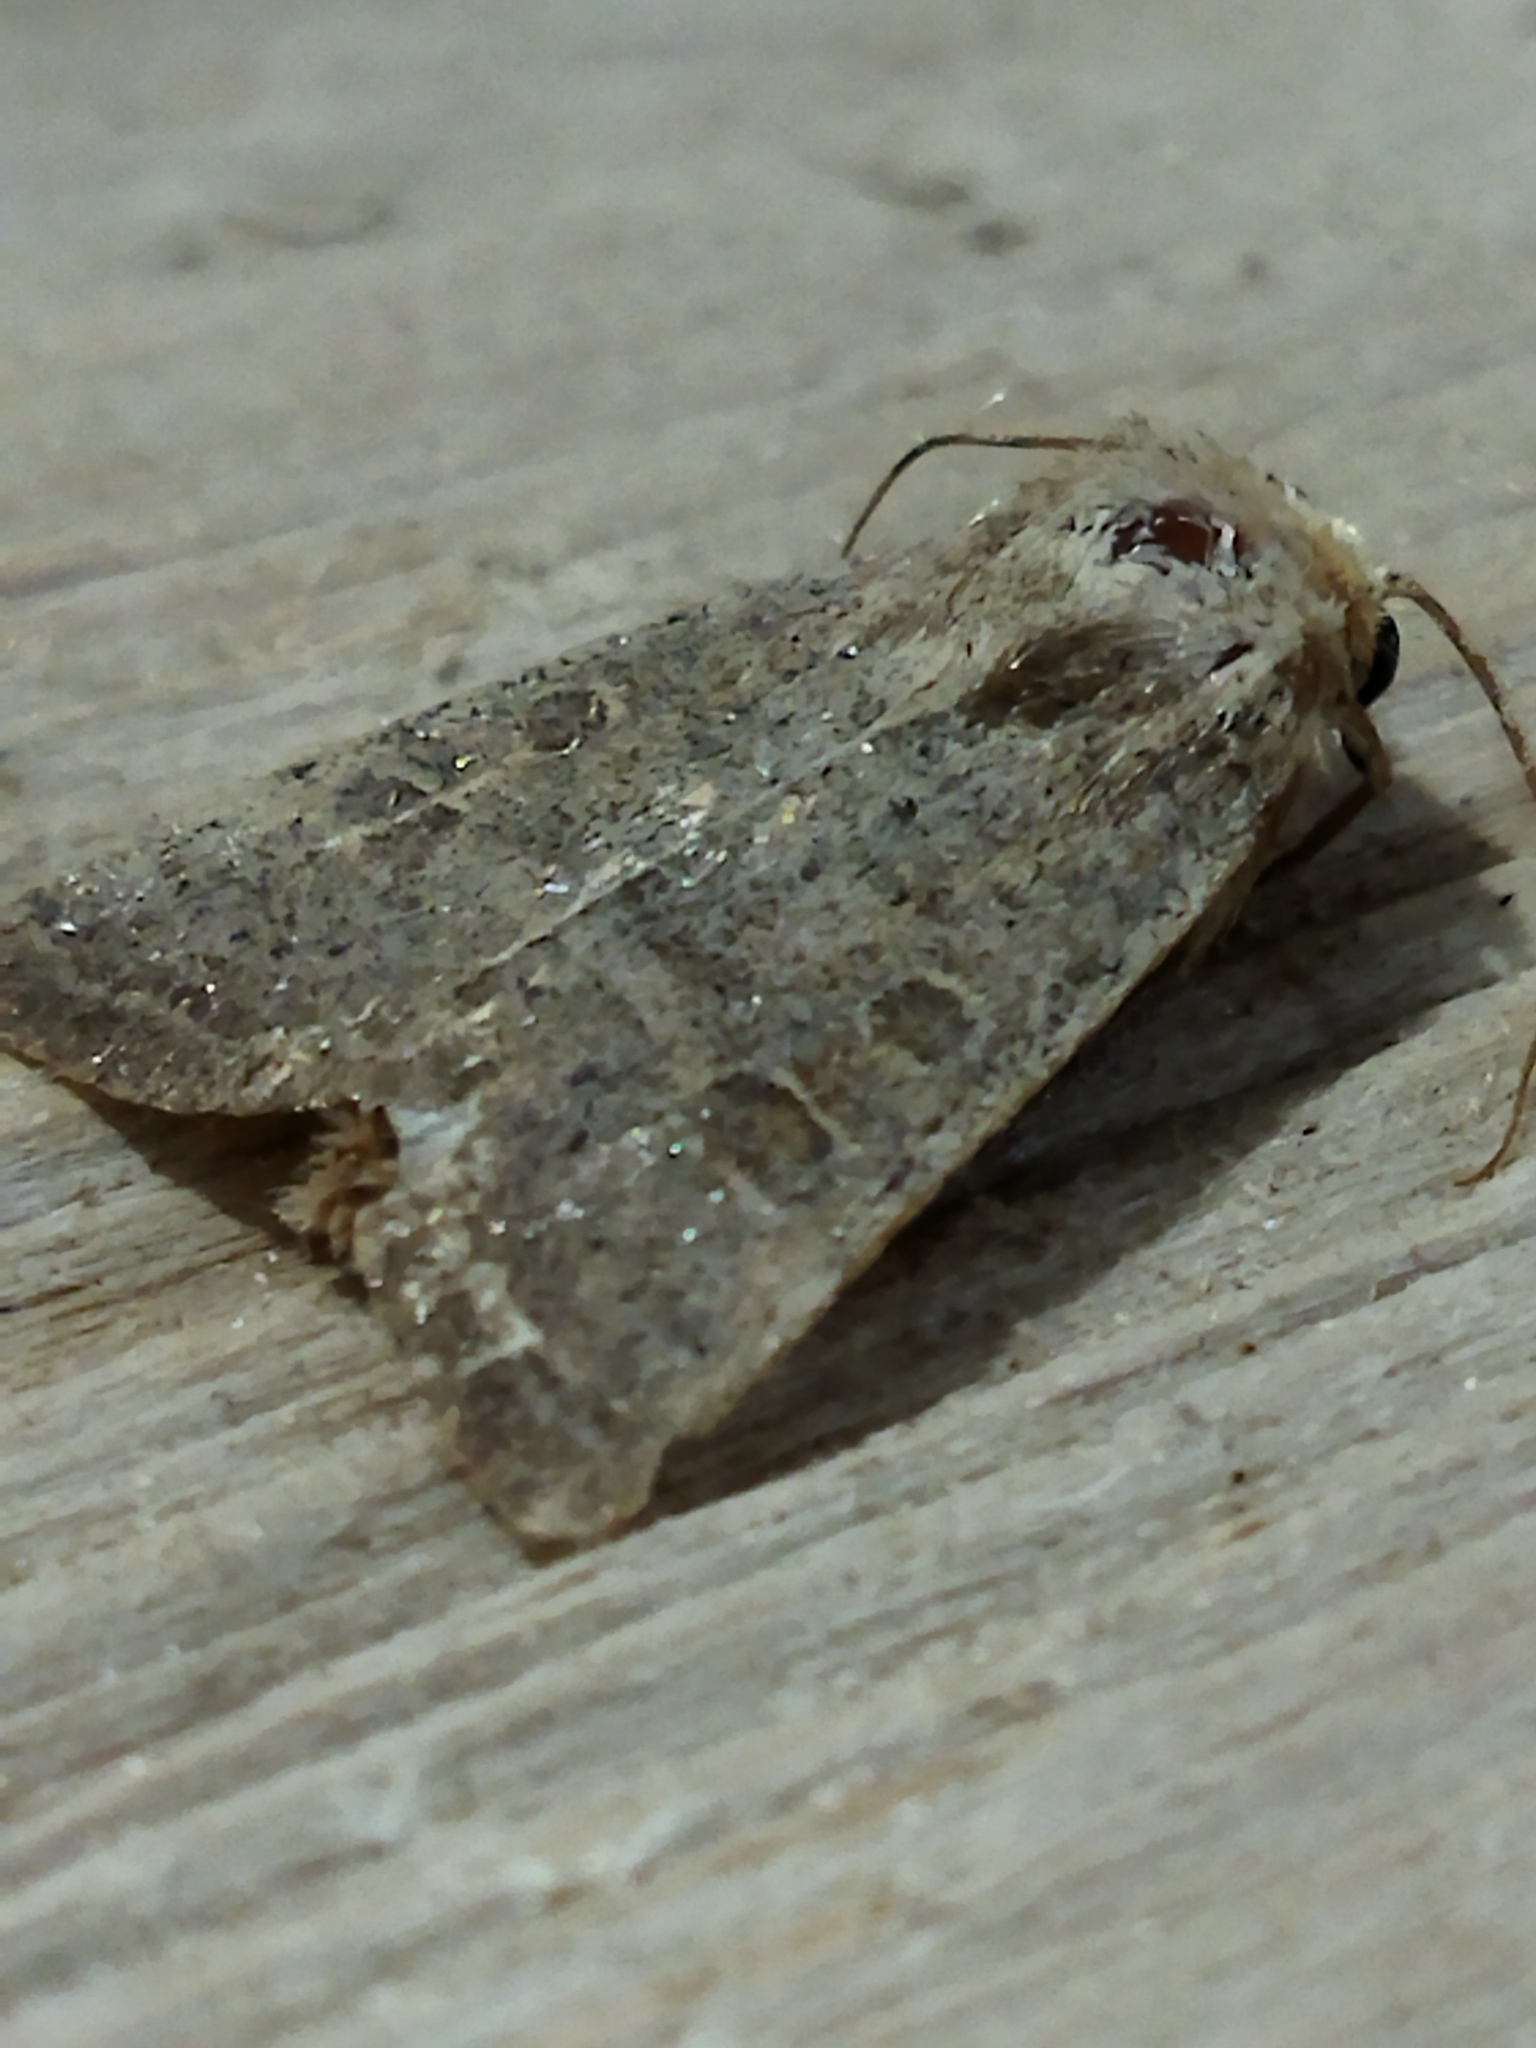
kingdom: Animalia
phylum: Arthropoda
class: Insecta
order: Lepidoptera
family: Noctuidae
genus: Hoplodrina
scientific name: Hoplodrina ambigua
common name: Vine's rustic
